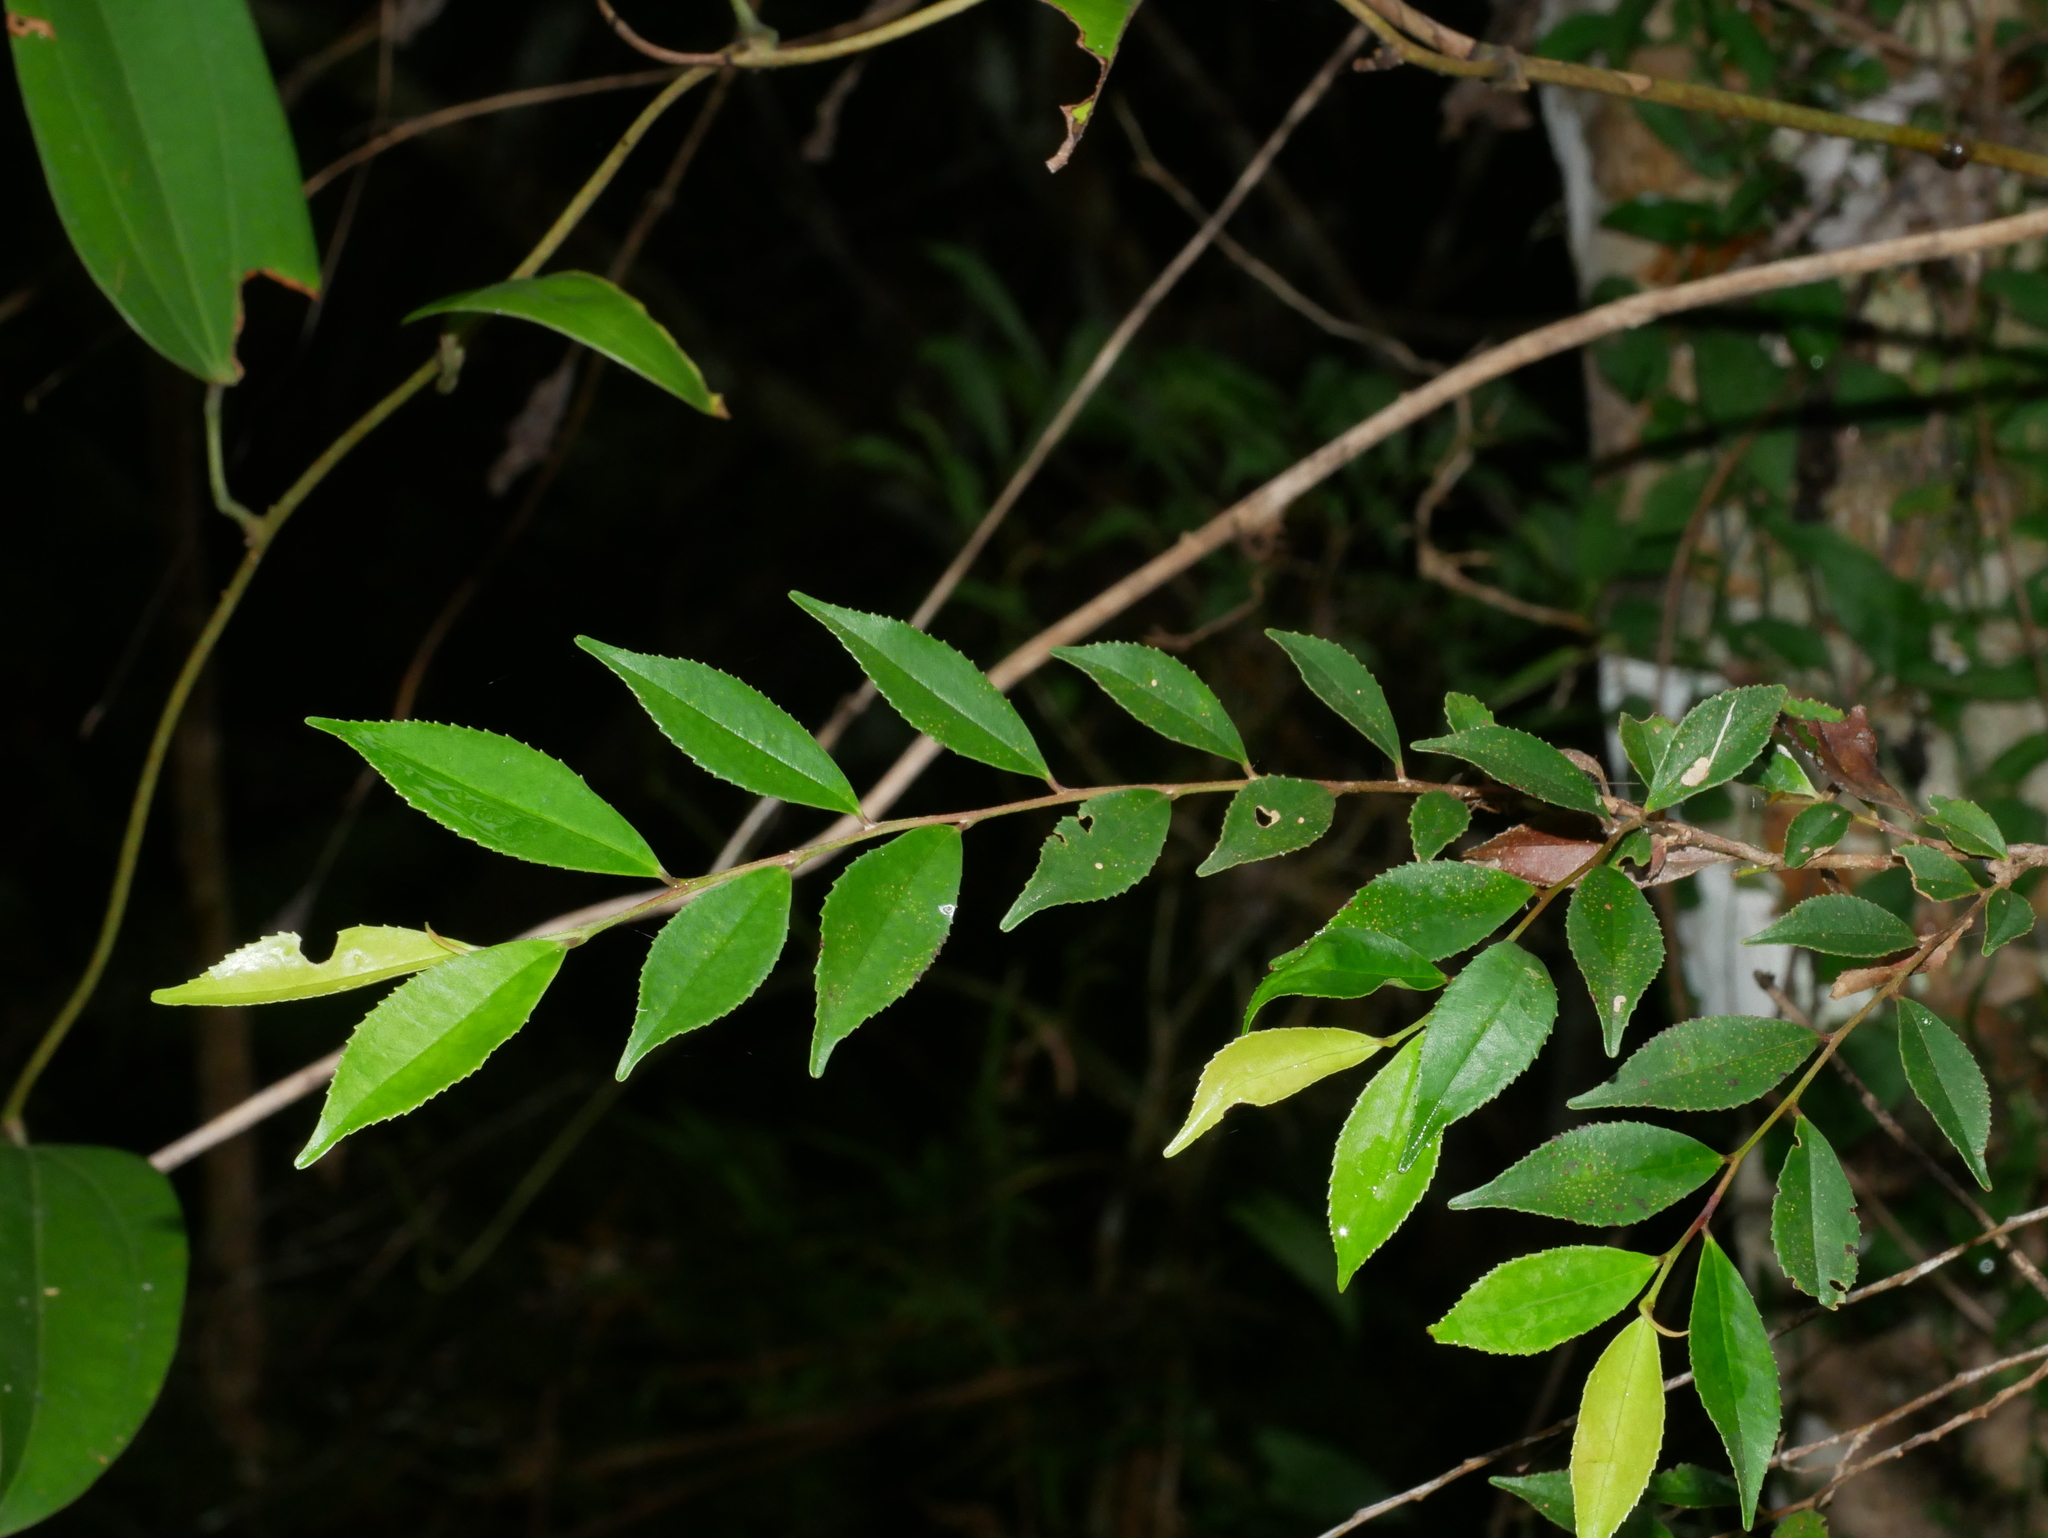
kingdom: Plantae
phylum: Tracheophyta
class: Magnoliopsida
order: Ericales
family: Pentaphylacaceae
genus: Eurya
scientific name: Eurya gnaphalocarpa
